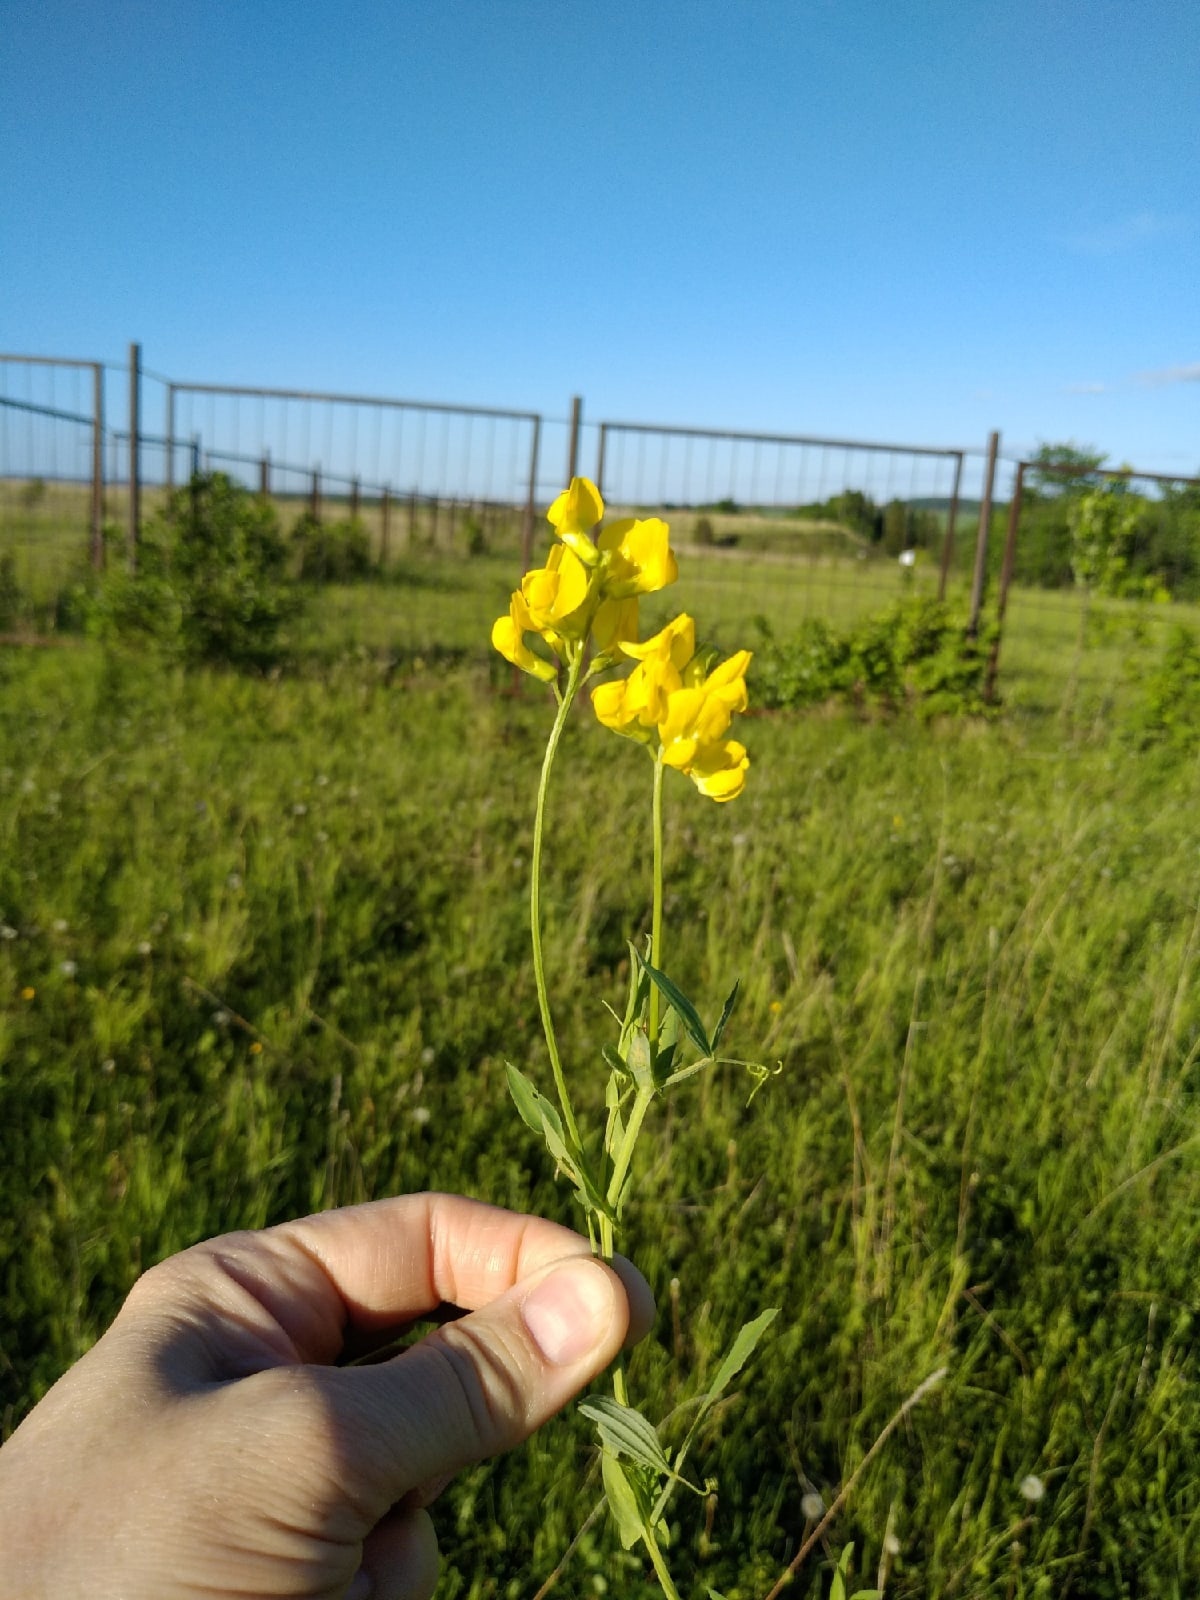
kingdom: Plantae
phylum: Tracheophyta
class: Magnoliopsida
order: Fabales
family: Fabaceae
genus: Lathyrus
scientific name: Lathyrus pratensis
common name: Meadow vetchling
